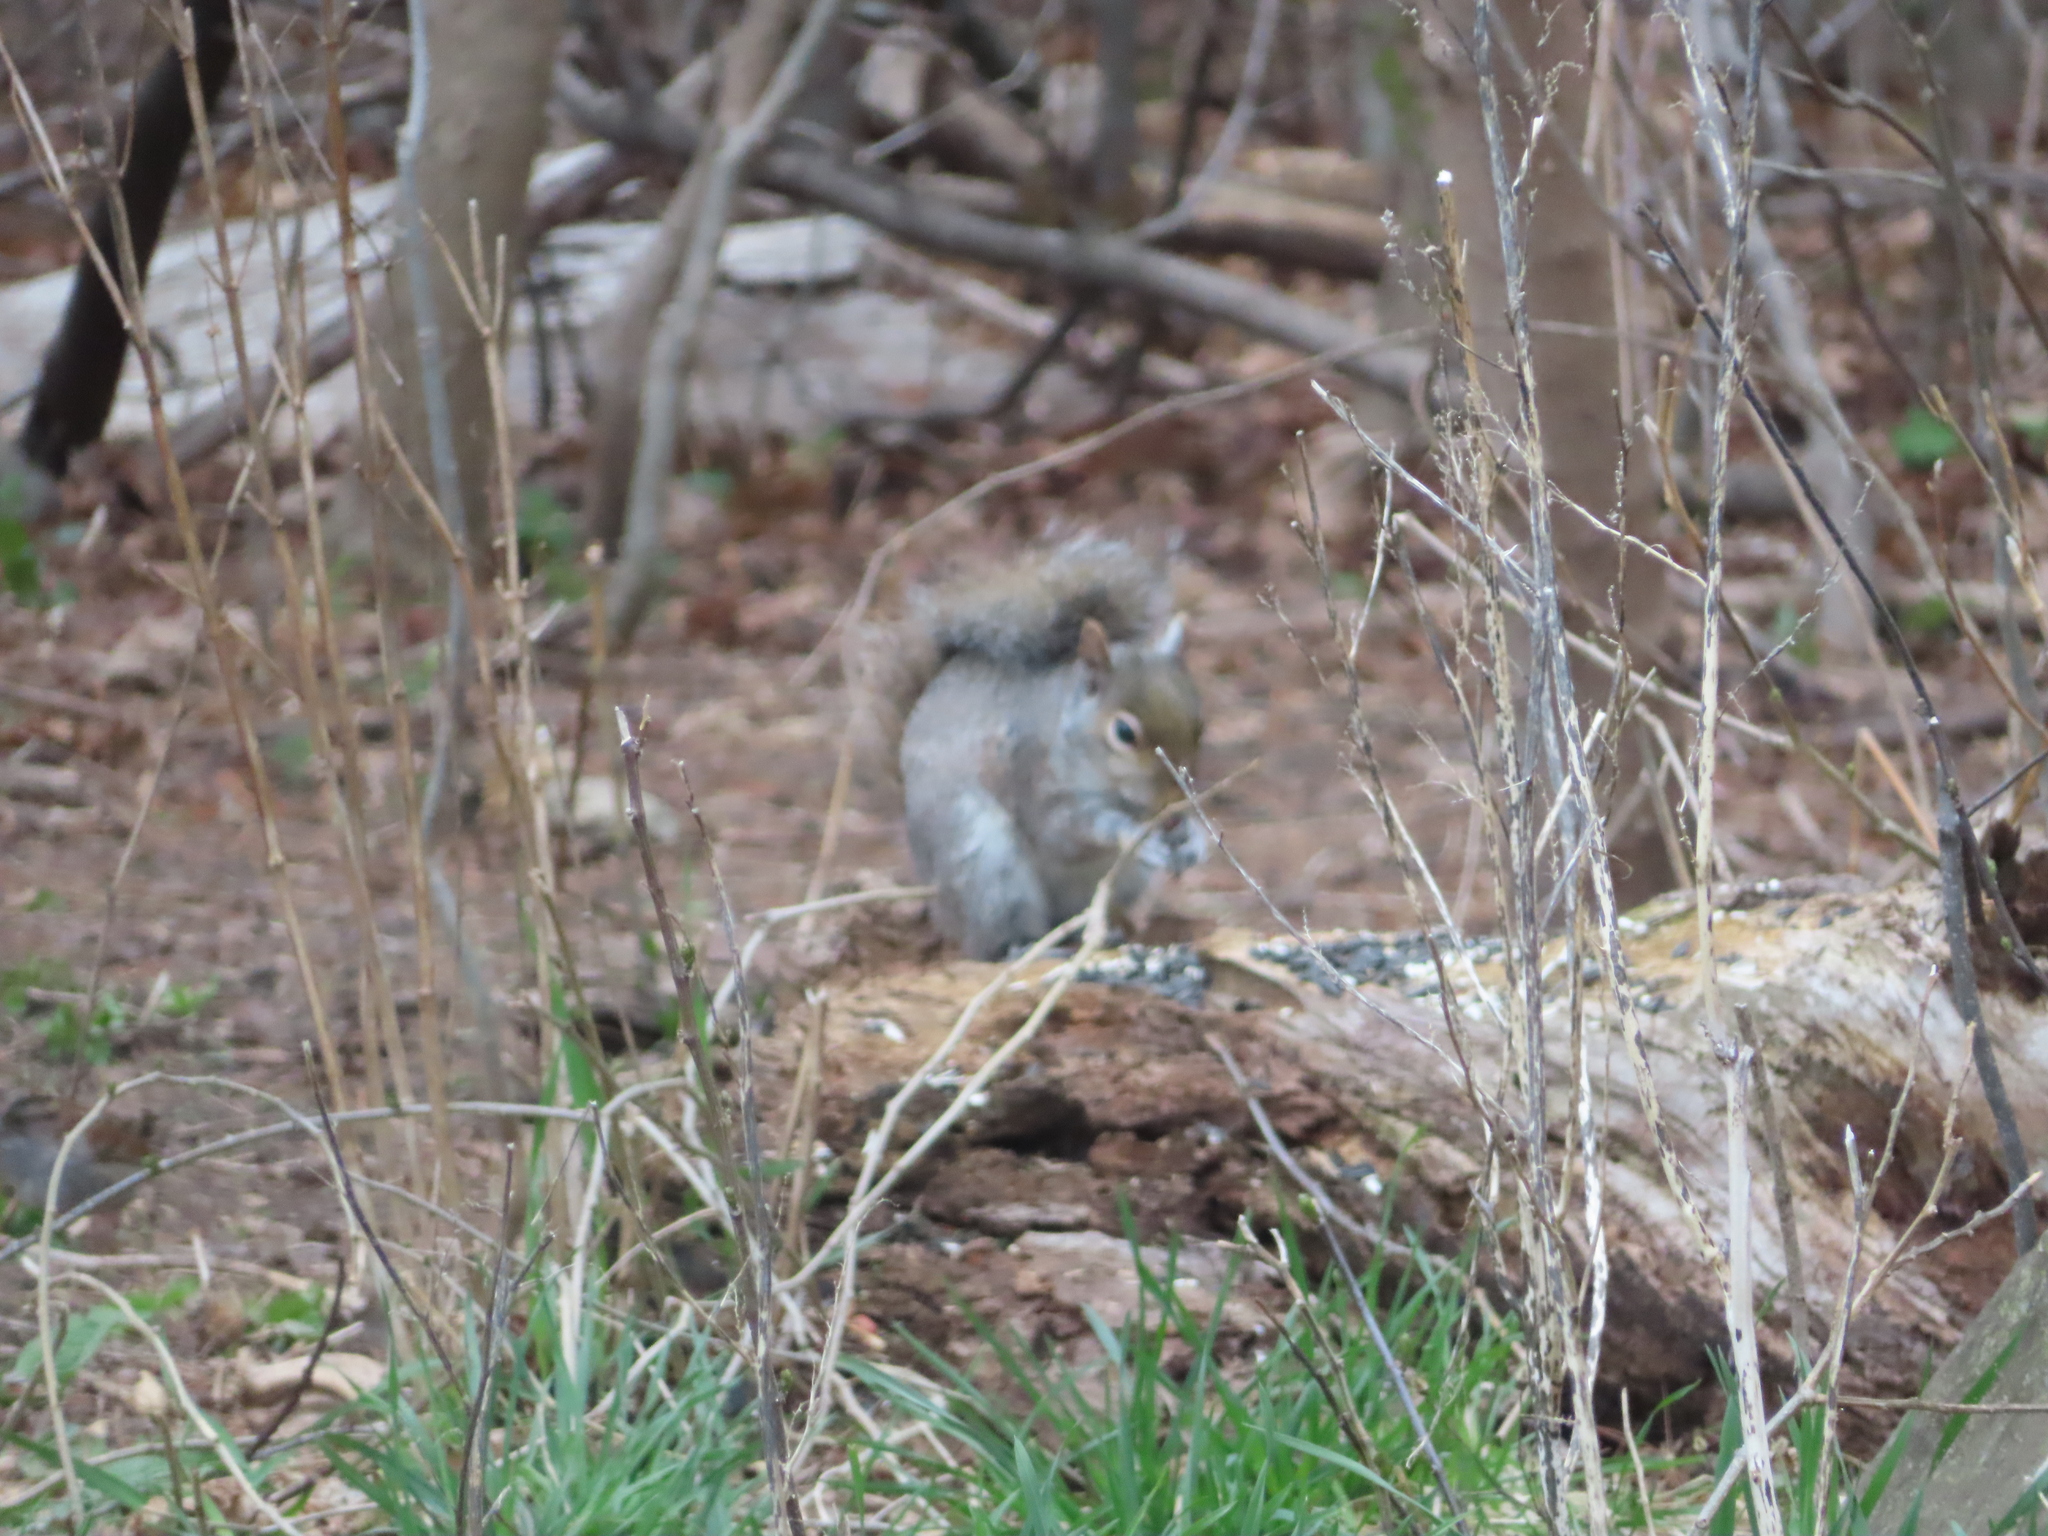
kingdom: Animalia
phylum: Chordata
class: Mammalia
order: Rodentia
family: Sciuridae
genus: Sciurus
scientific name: Sciurus carolinensis
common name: Eastern gray squirrel
